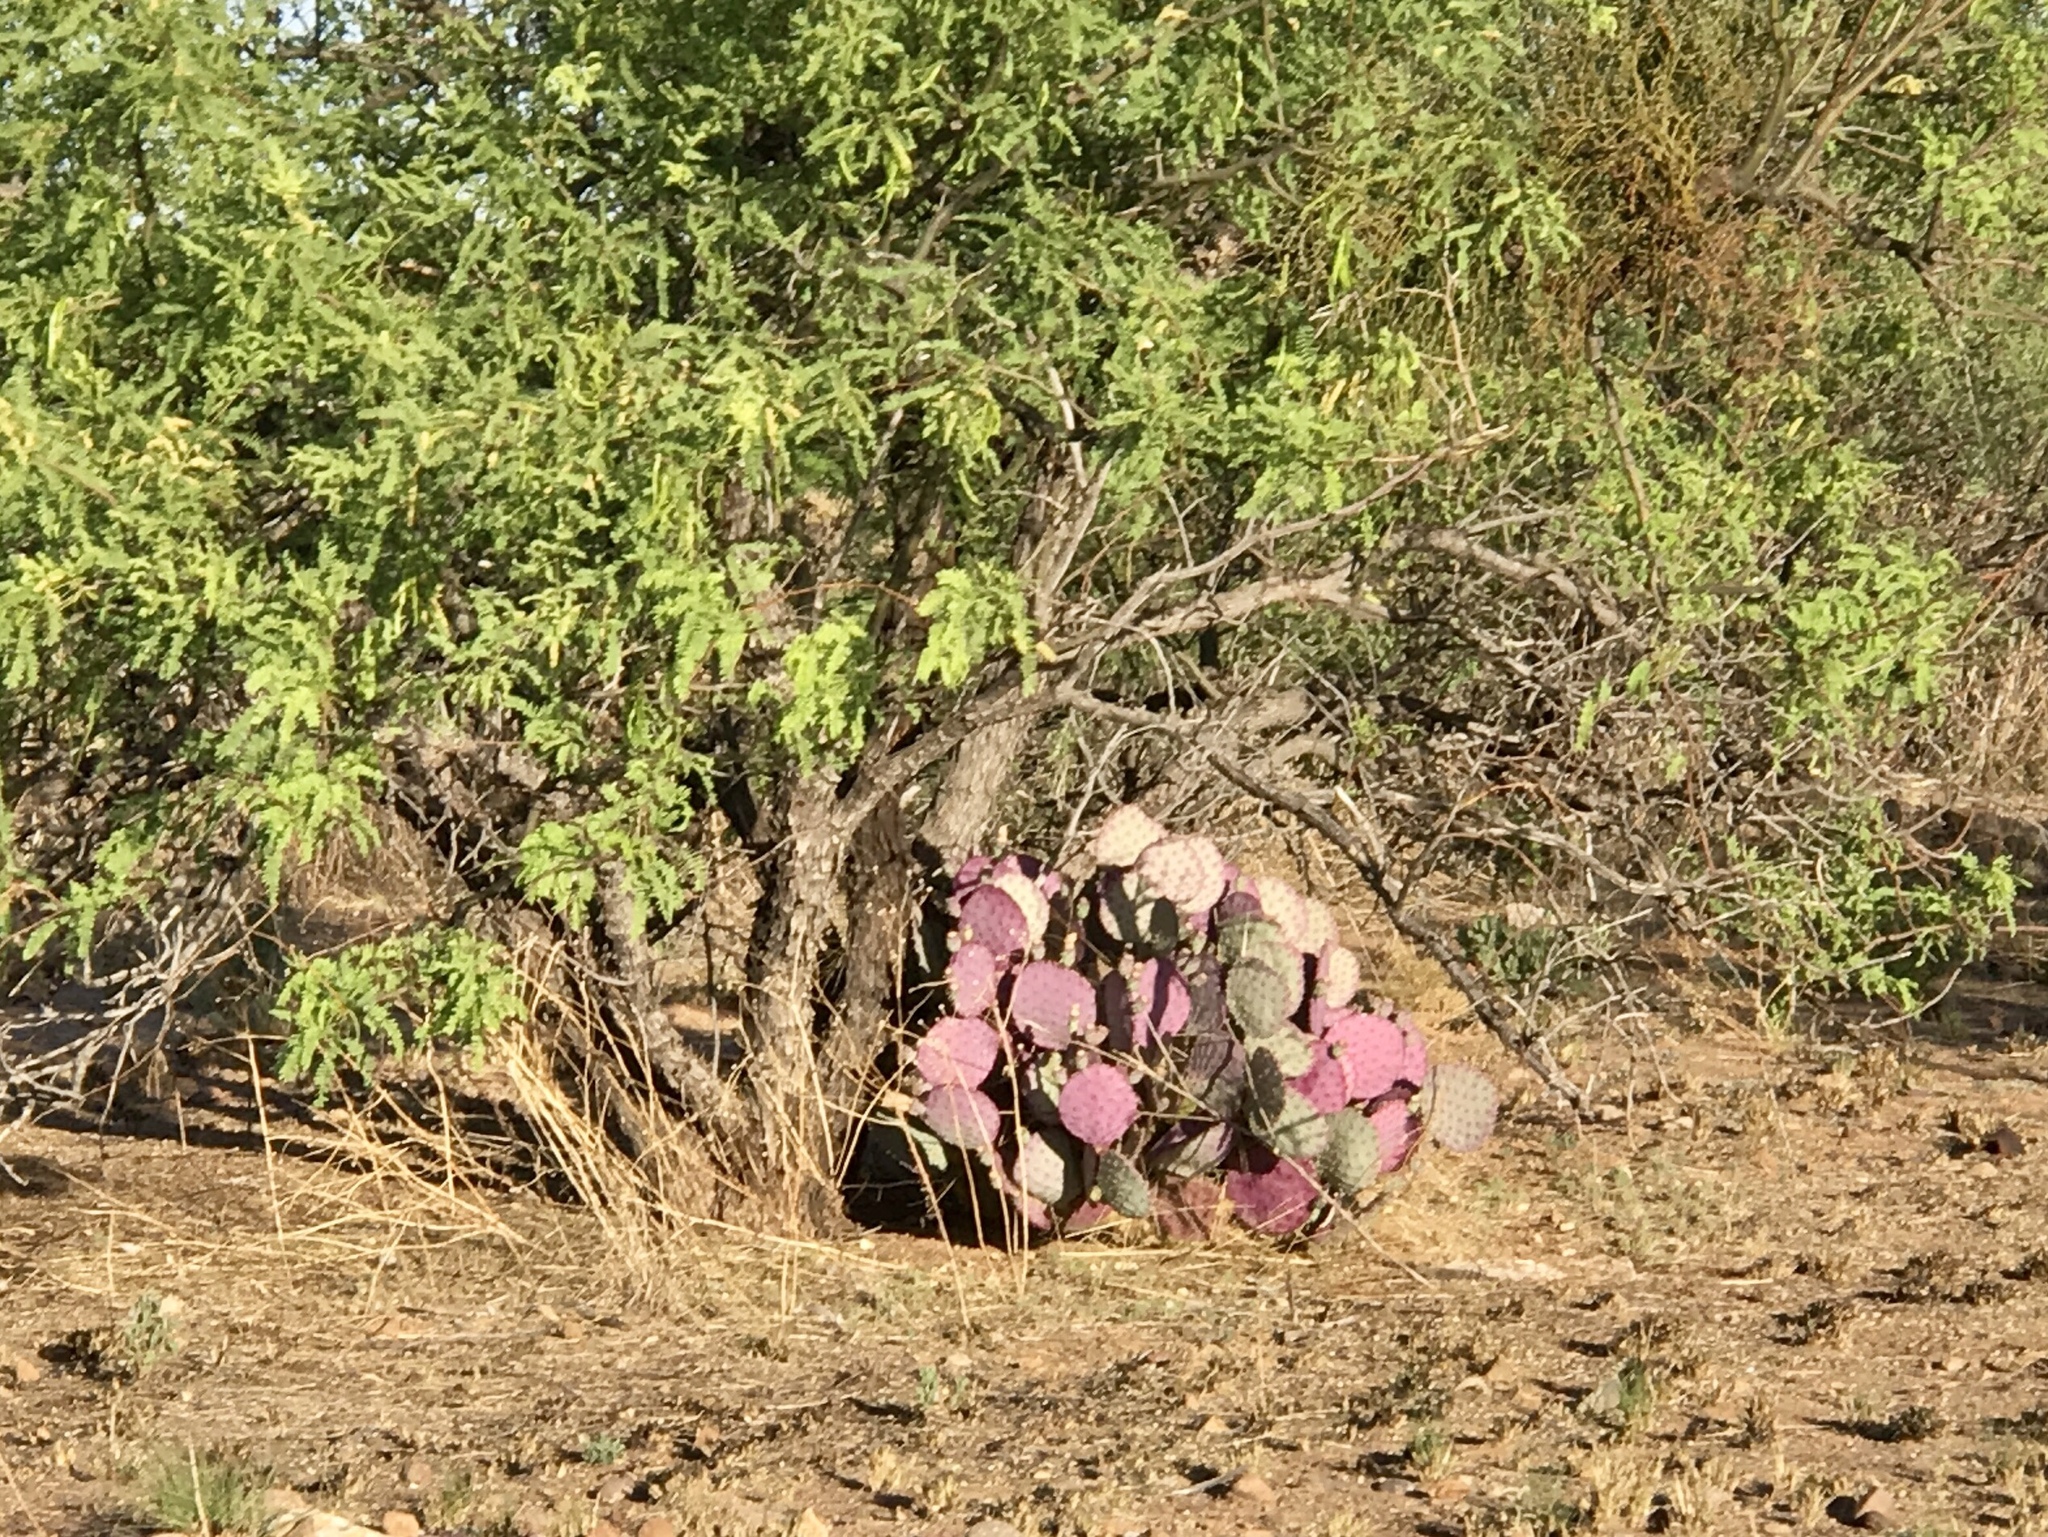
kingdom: Plantae
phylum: Tracheophyta
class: Magnoliopsida
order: Caryophyllales
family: Cactaceae
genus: Opuntia
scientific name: Opuntia macrocentra
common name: Purple prickly-pear
